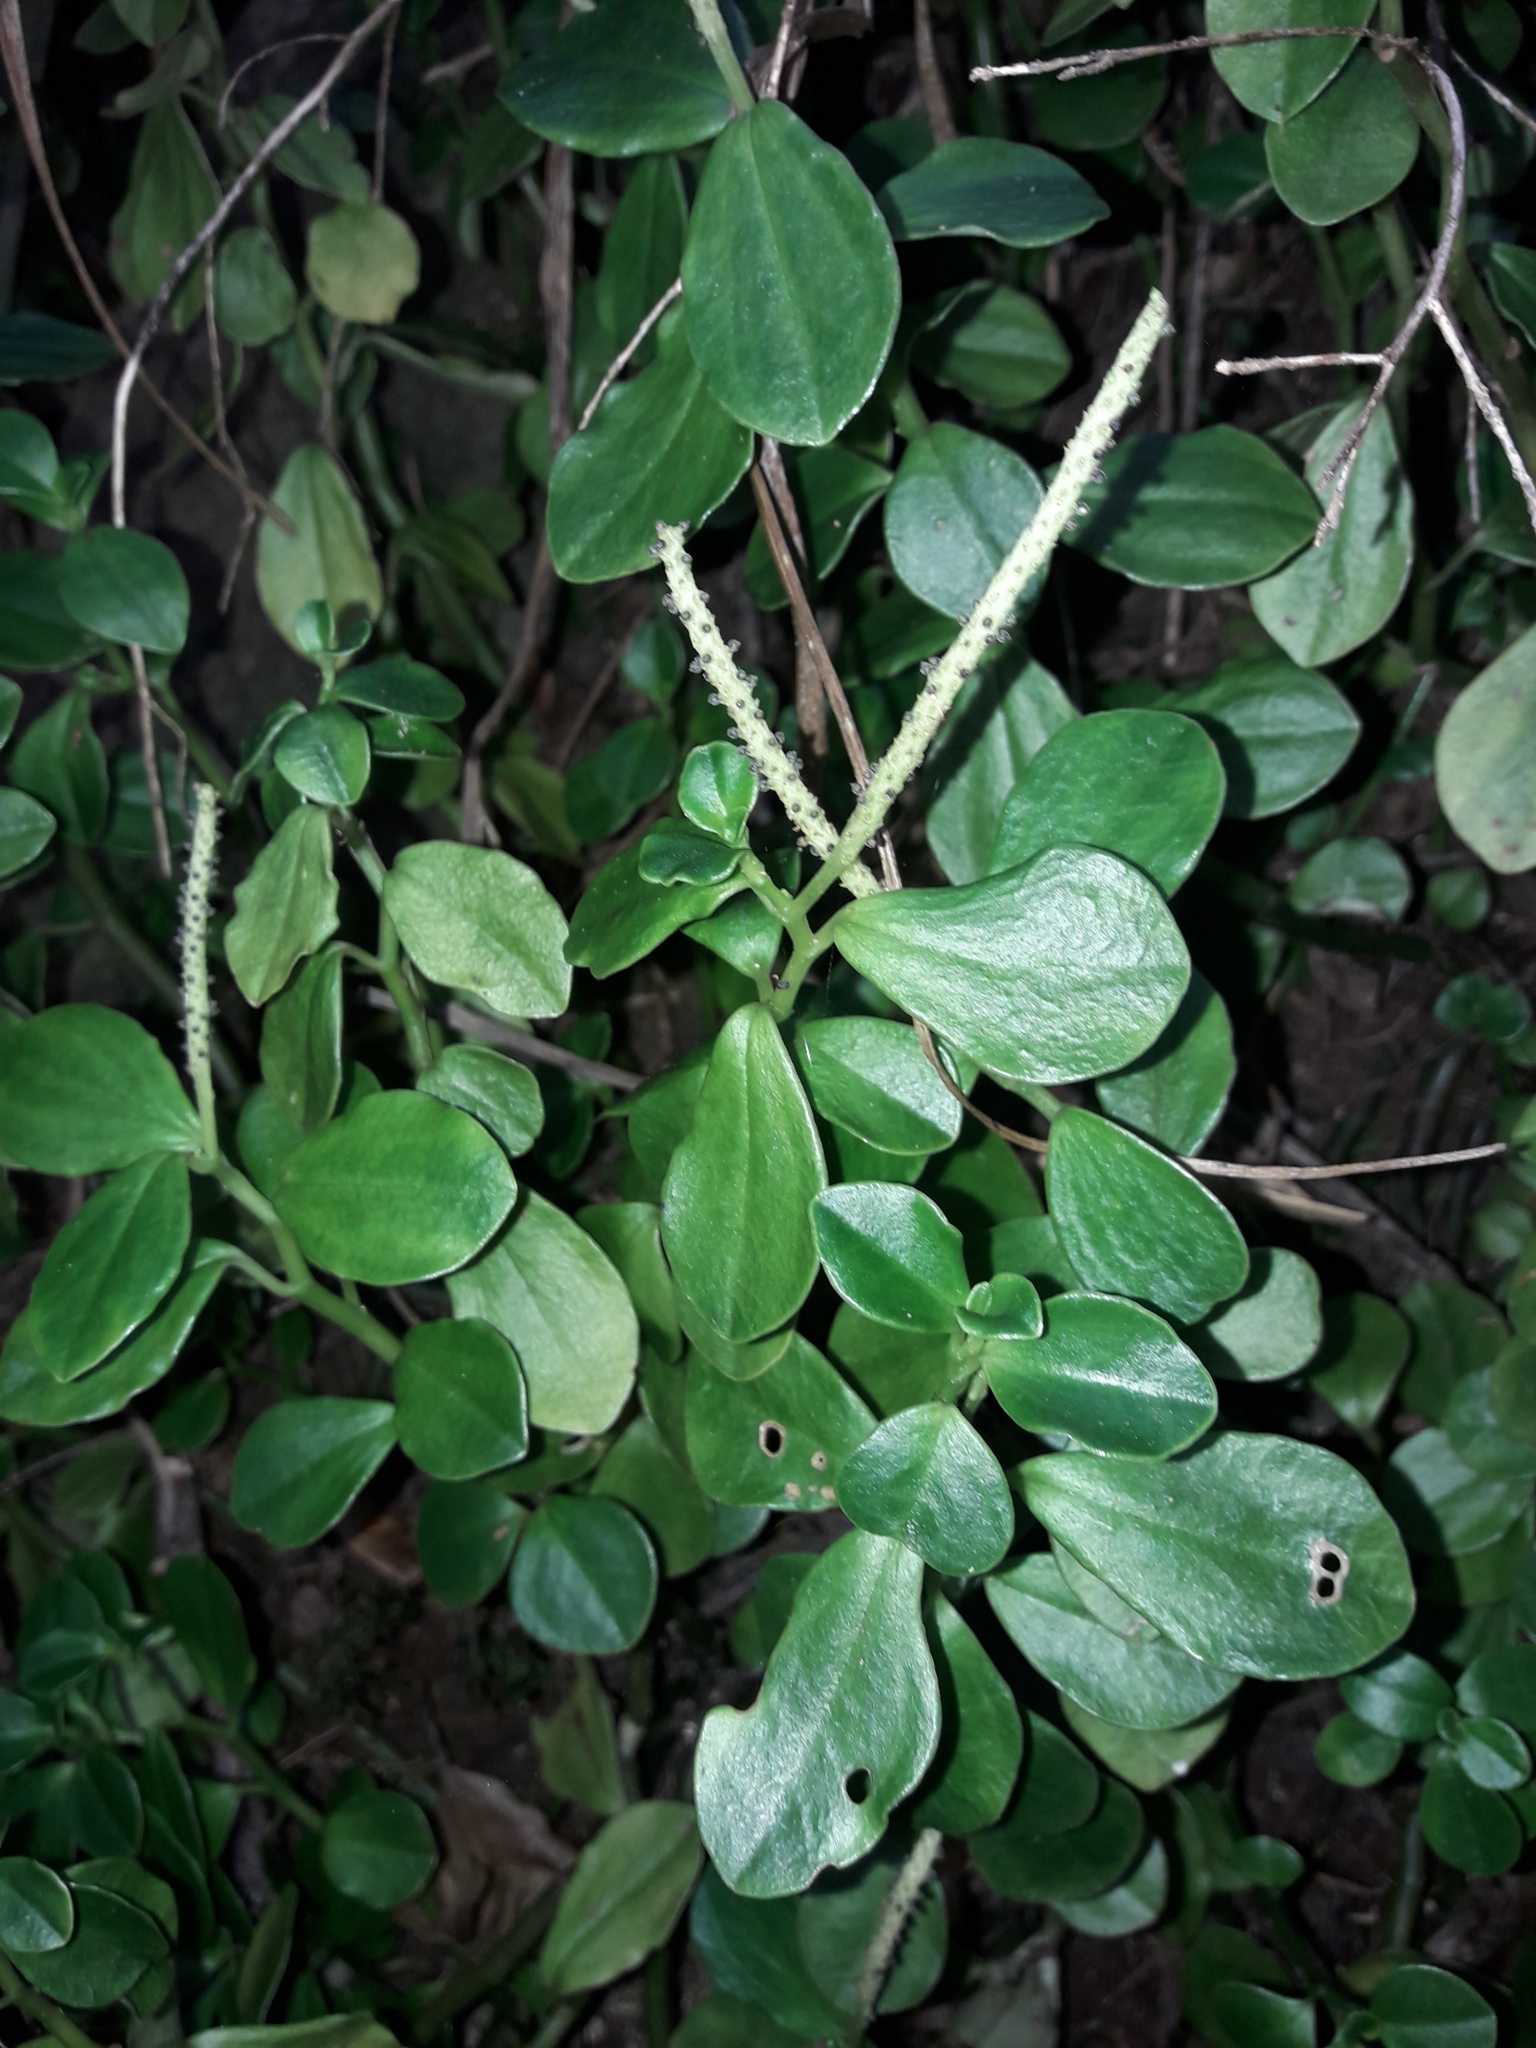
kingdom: Plantae
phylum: Tracheophyta
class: Magnoliopsida
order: Piperales
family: Piperaceae
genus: Peperomia
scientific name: Peperomia urvilleana
